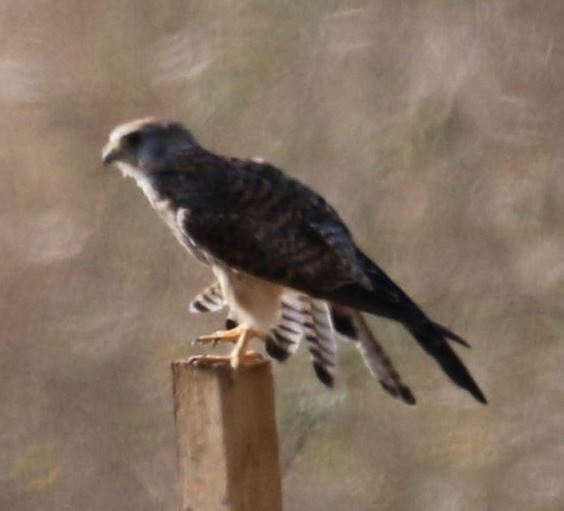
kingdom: Animalia
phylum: Chordata
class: Aves
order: Falconiformes
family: Falconidae
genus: Falco
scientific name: Falco tinnunculus
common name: Common kestrel
